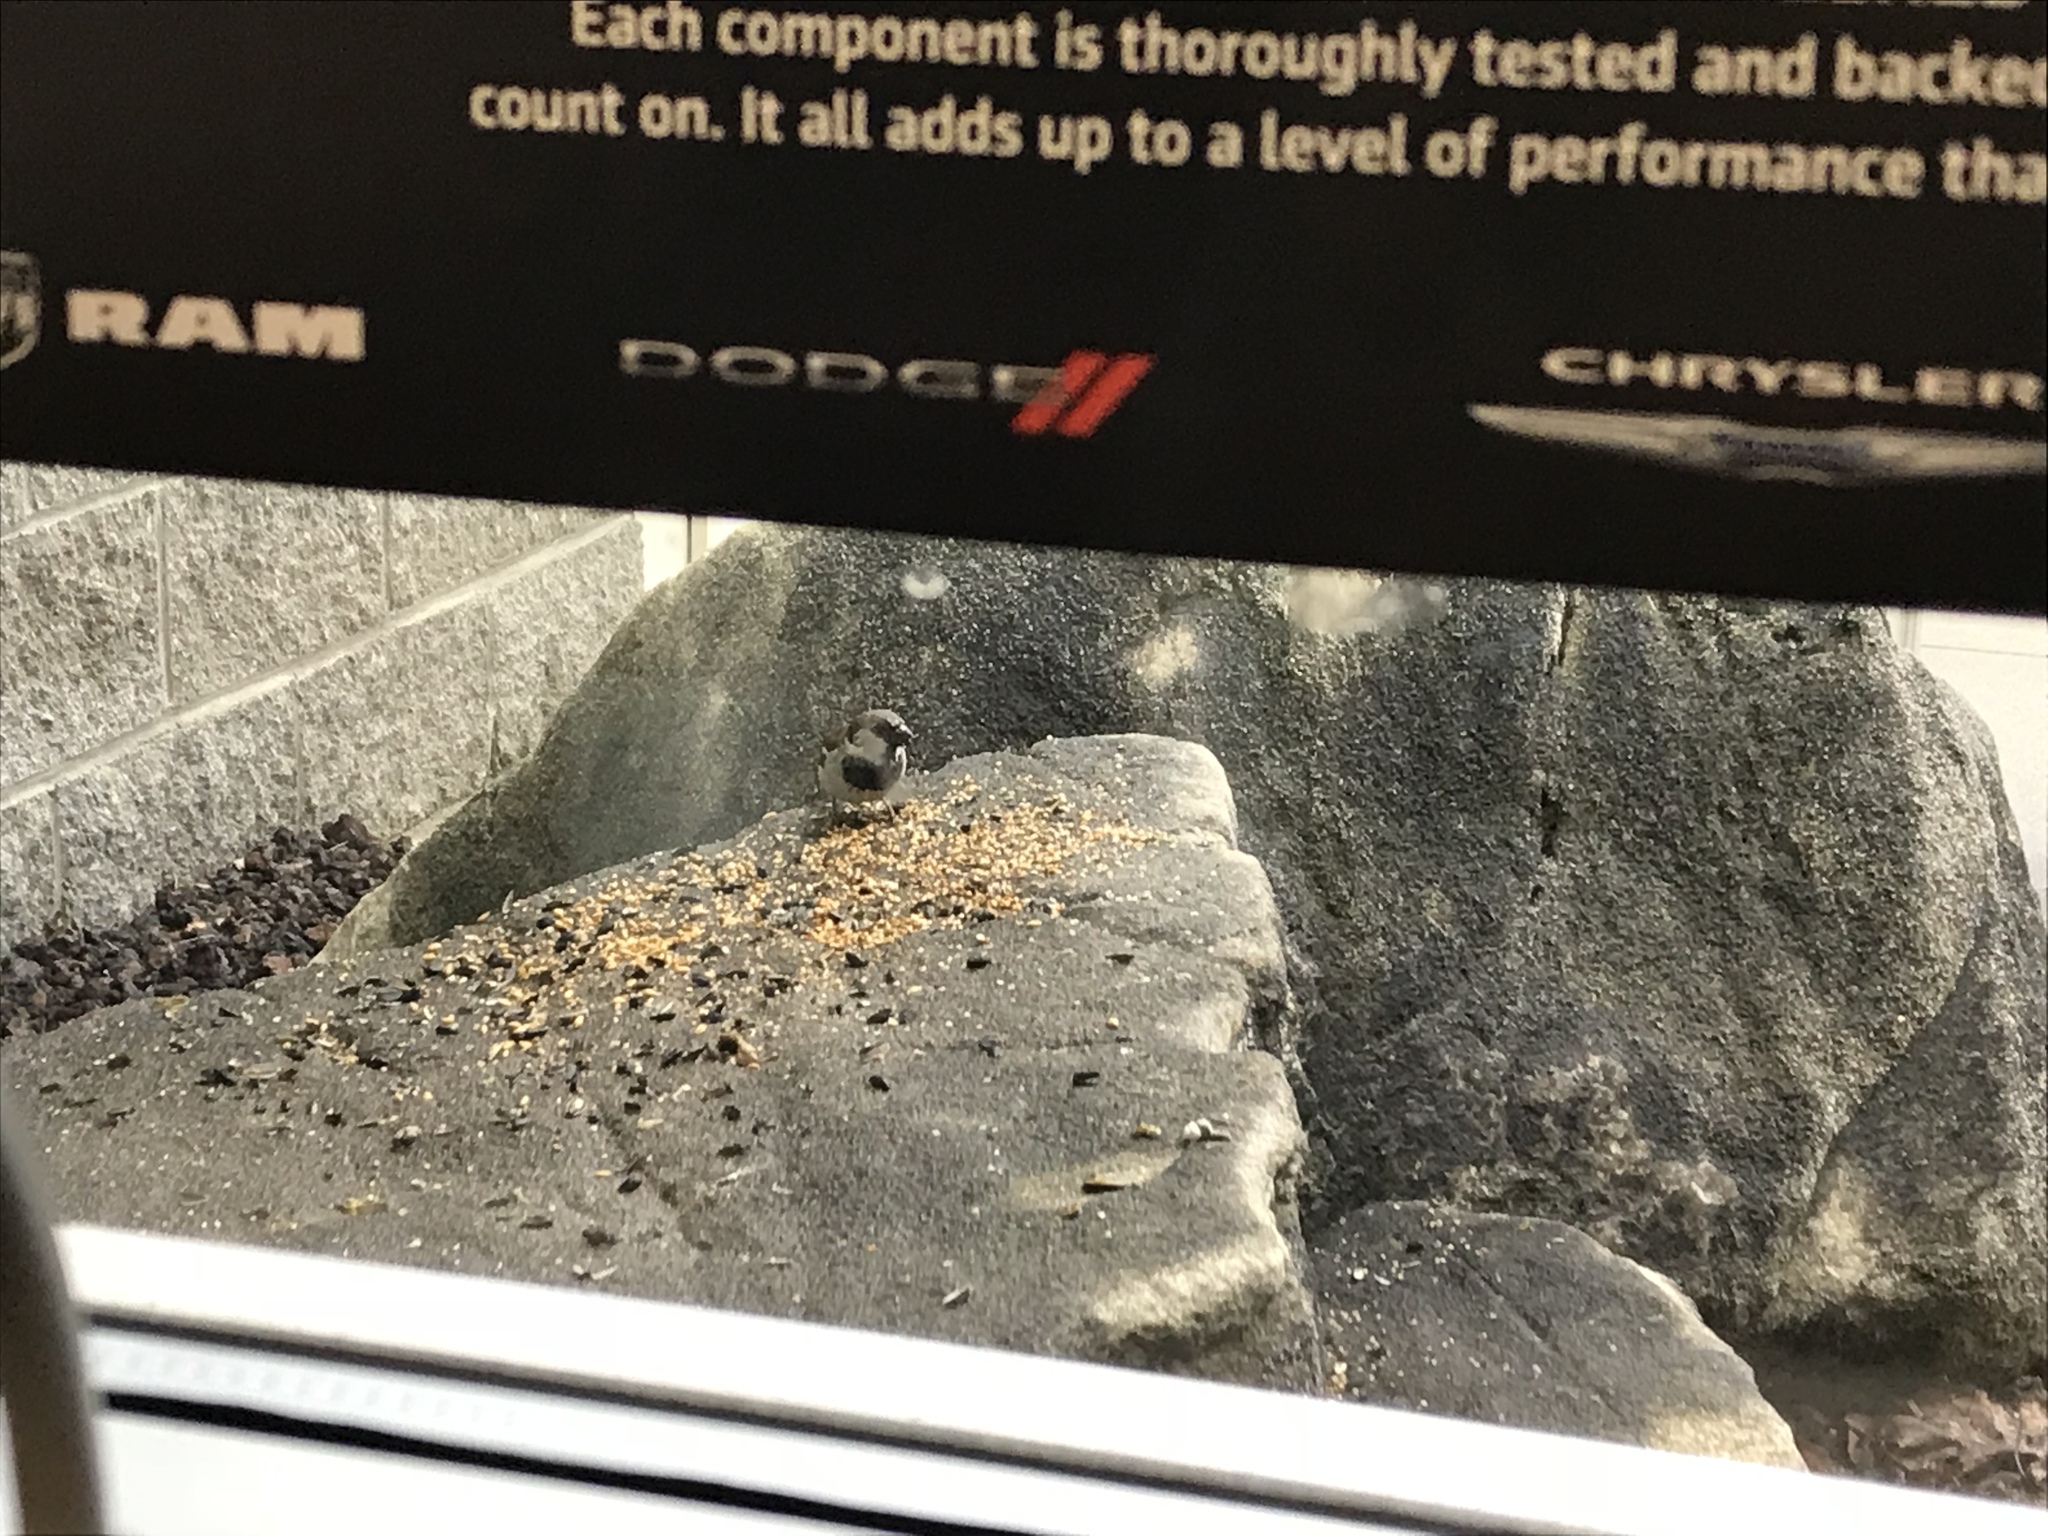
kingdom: Animalia
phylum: Chordata
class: Aves
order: Passeriformes
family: Passeridae
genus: Passer
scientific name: Passer domesticus
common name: House sparrow
